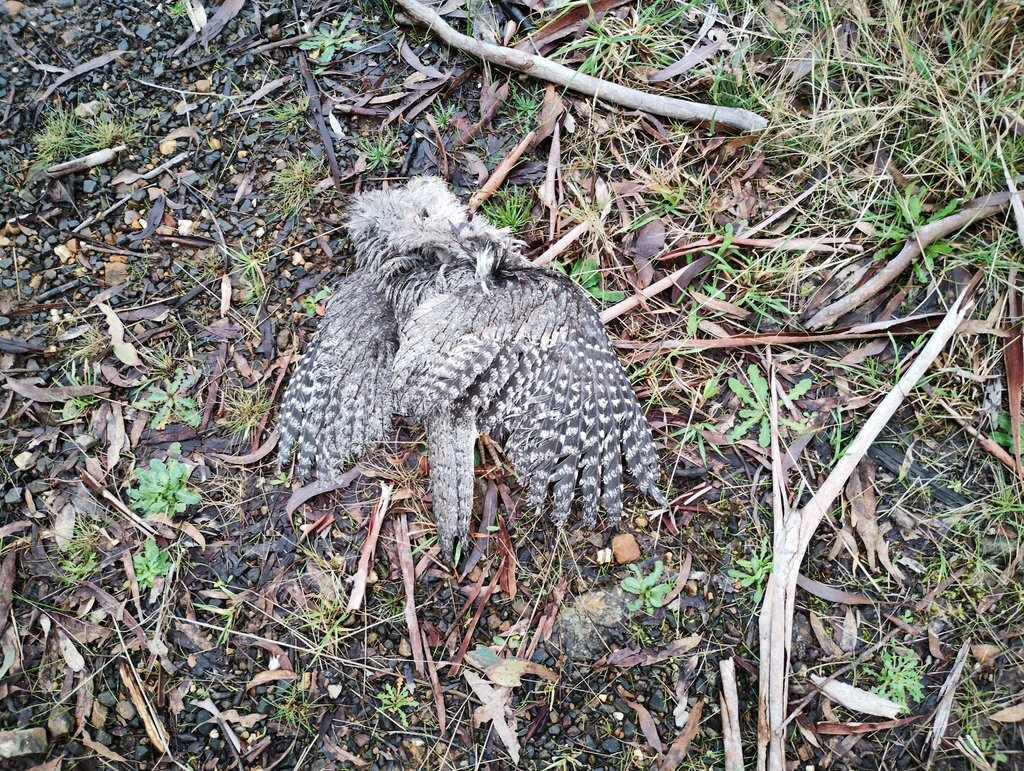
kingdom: Animalia
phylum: Chordata
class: Aves
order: Caprimulgiformes
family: Podargidae
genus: Podargus
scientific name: Podargus strigoides
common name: Tawny frogmouth
